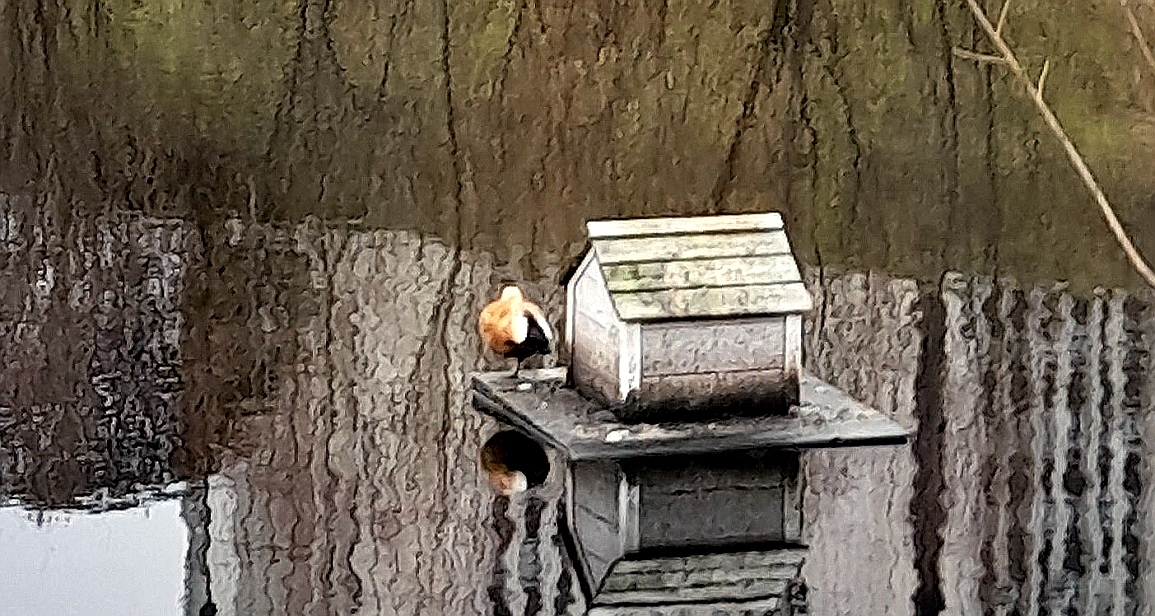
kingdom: Animalia
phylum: Chordata
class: Aves
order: Anseriformes
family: Anatidae
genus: Tadorna
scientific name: Tadorna ferruginea
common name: Ruddy shelduck
